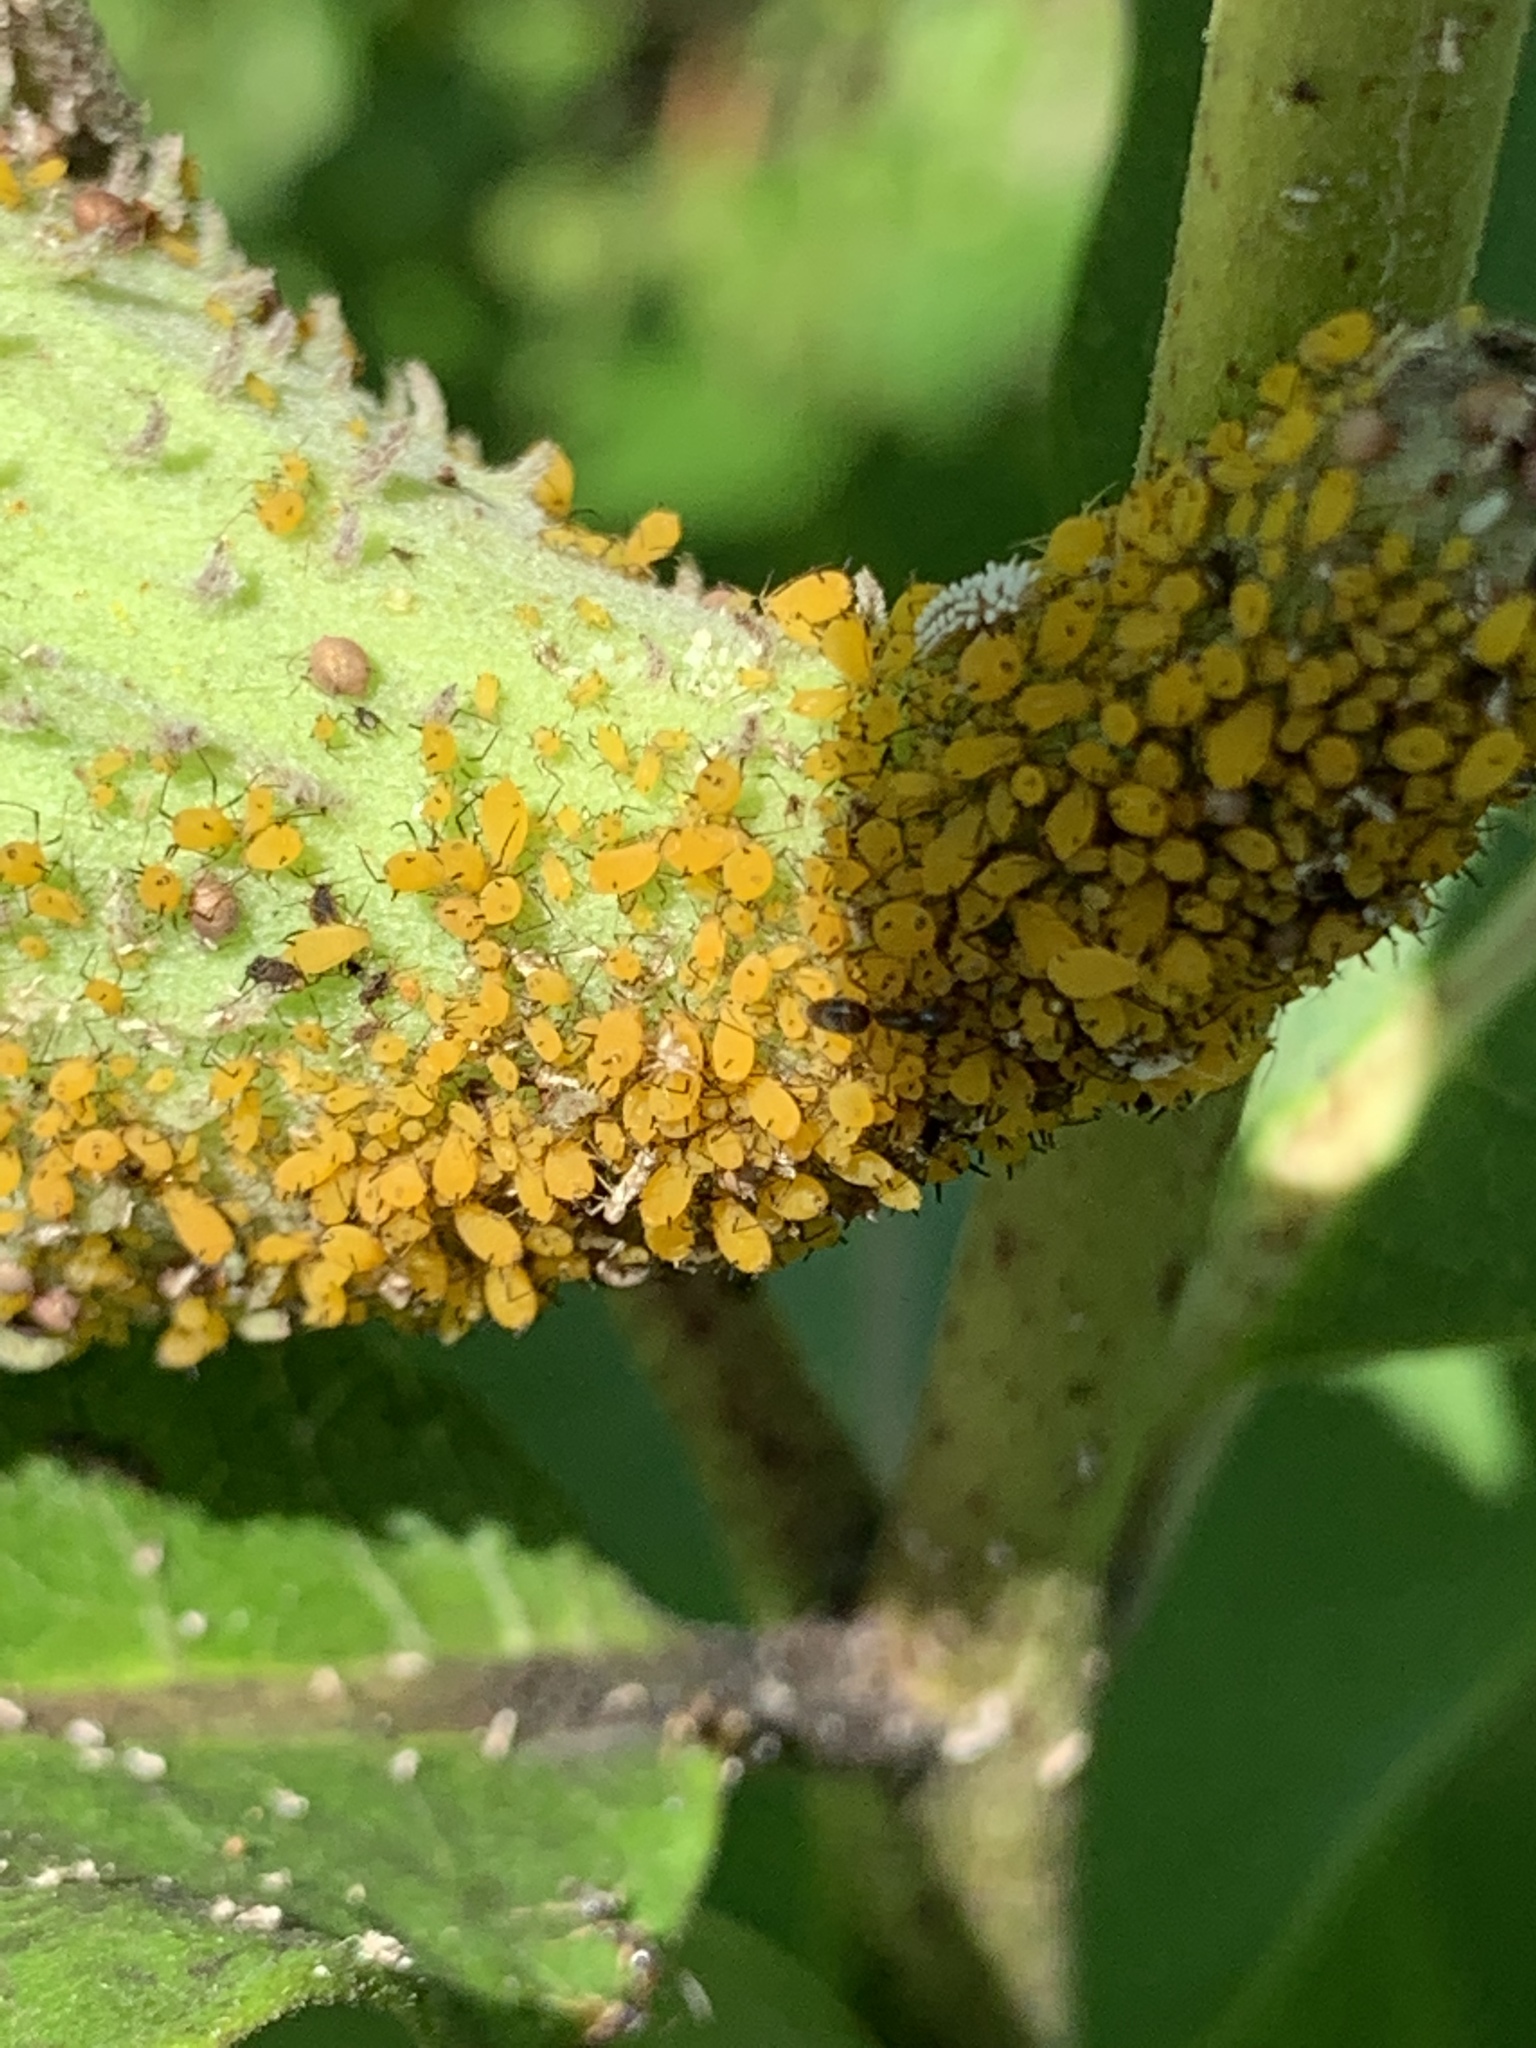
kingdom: Animalia
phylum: Arthropoda
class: Insecta
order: Hemiptera
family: Aphididae
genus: Aphis
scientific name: Aphis nerii
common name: Oleander aphid
